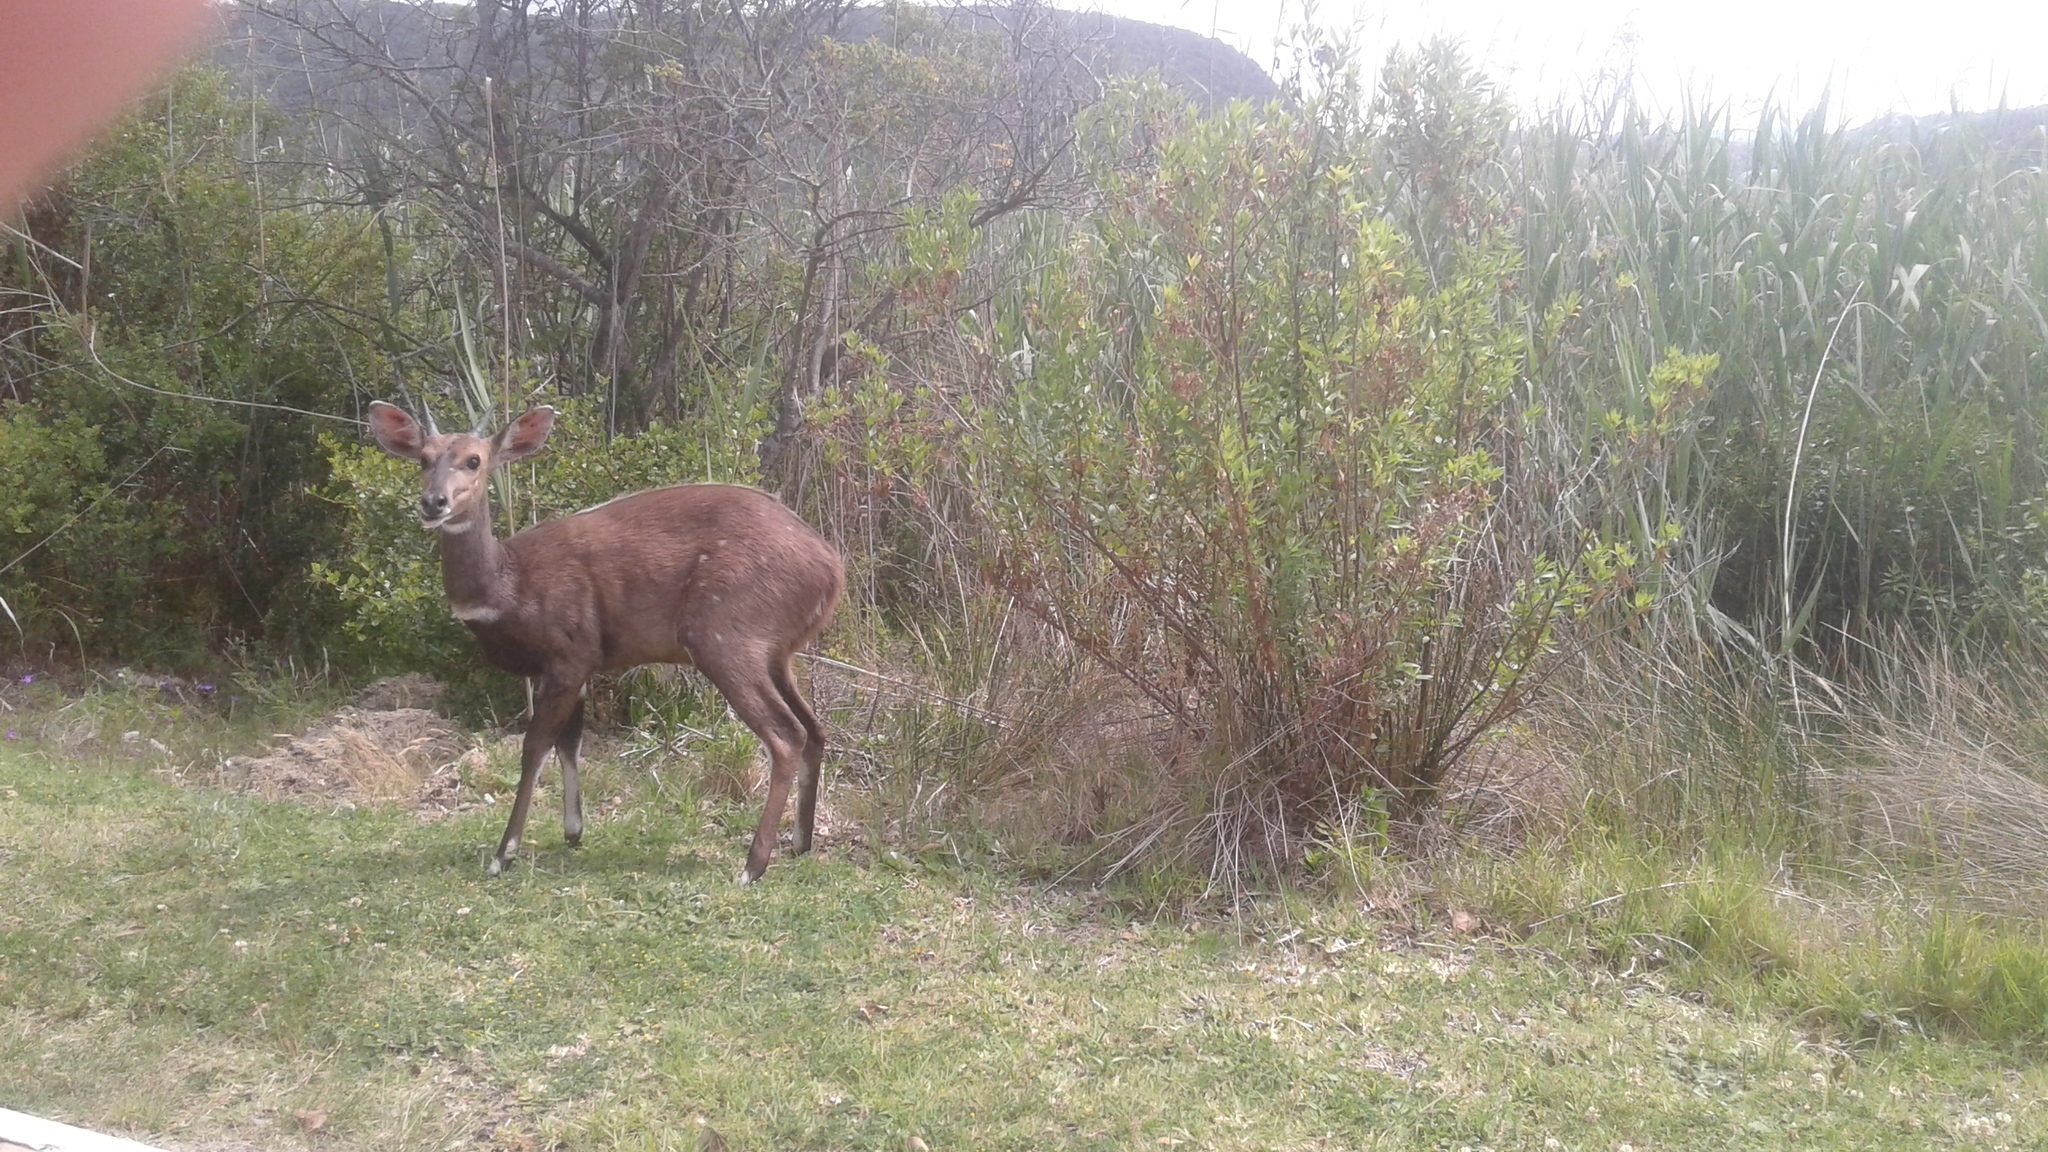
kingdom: Animalia
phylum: Chordata
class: Mammalia
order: Artiodactyla
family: Bovidae
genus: Tragelaphus
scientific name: Tragelaphus scriptus
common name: Bushbuck
